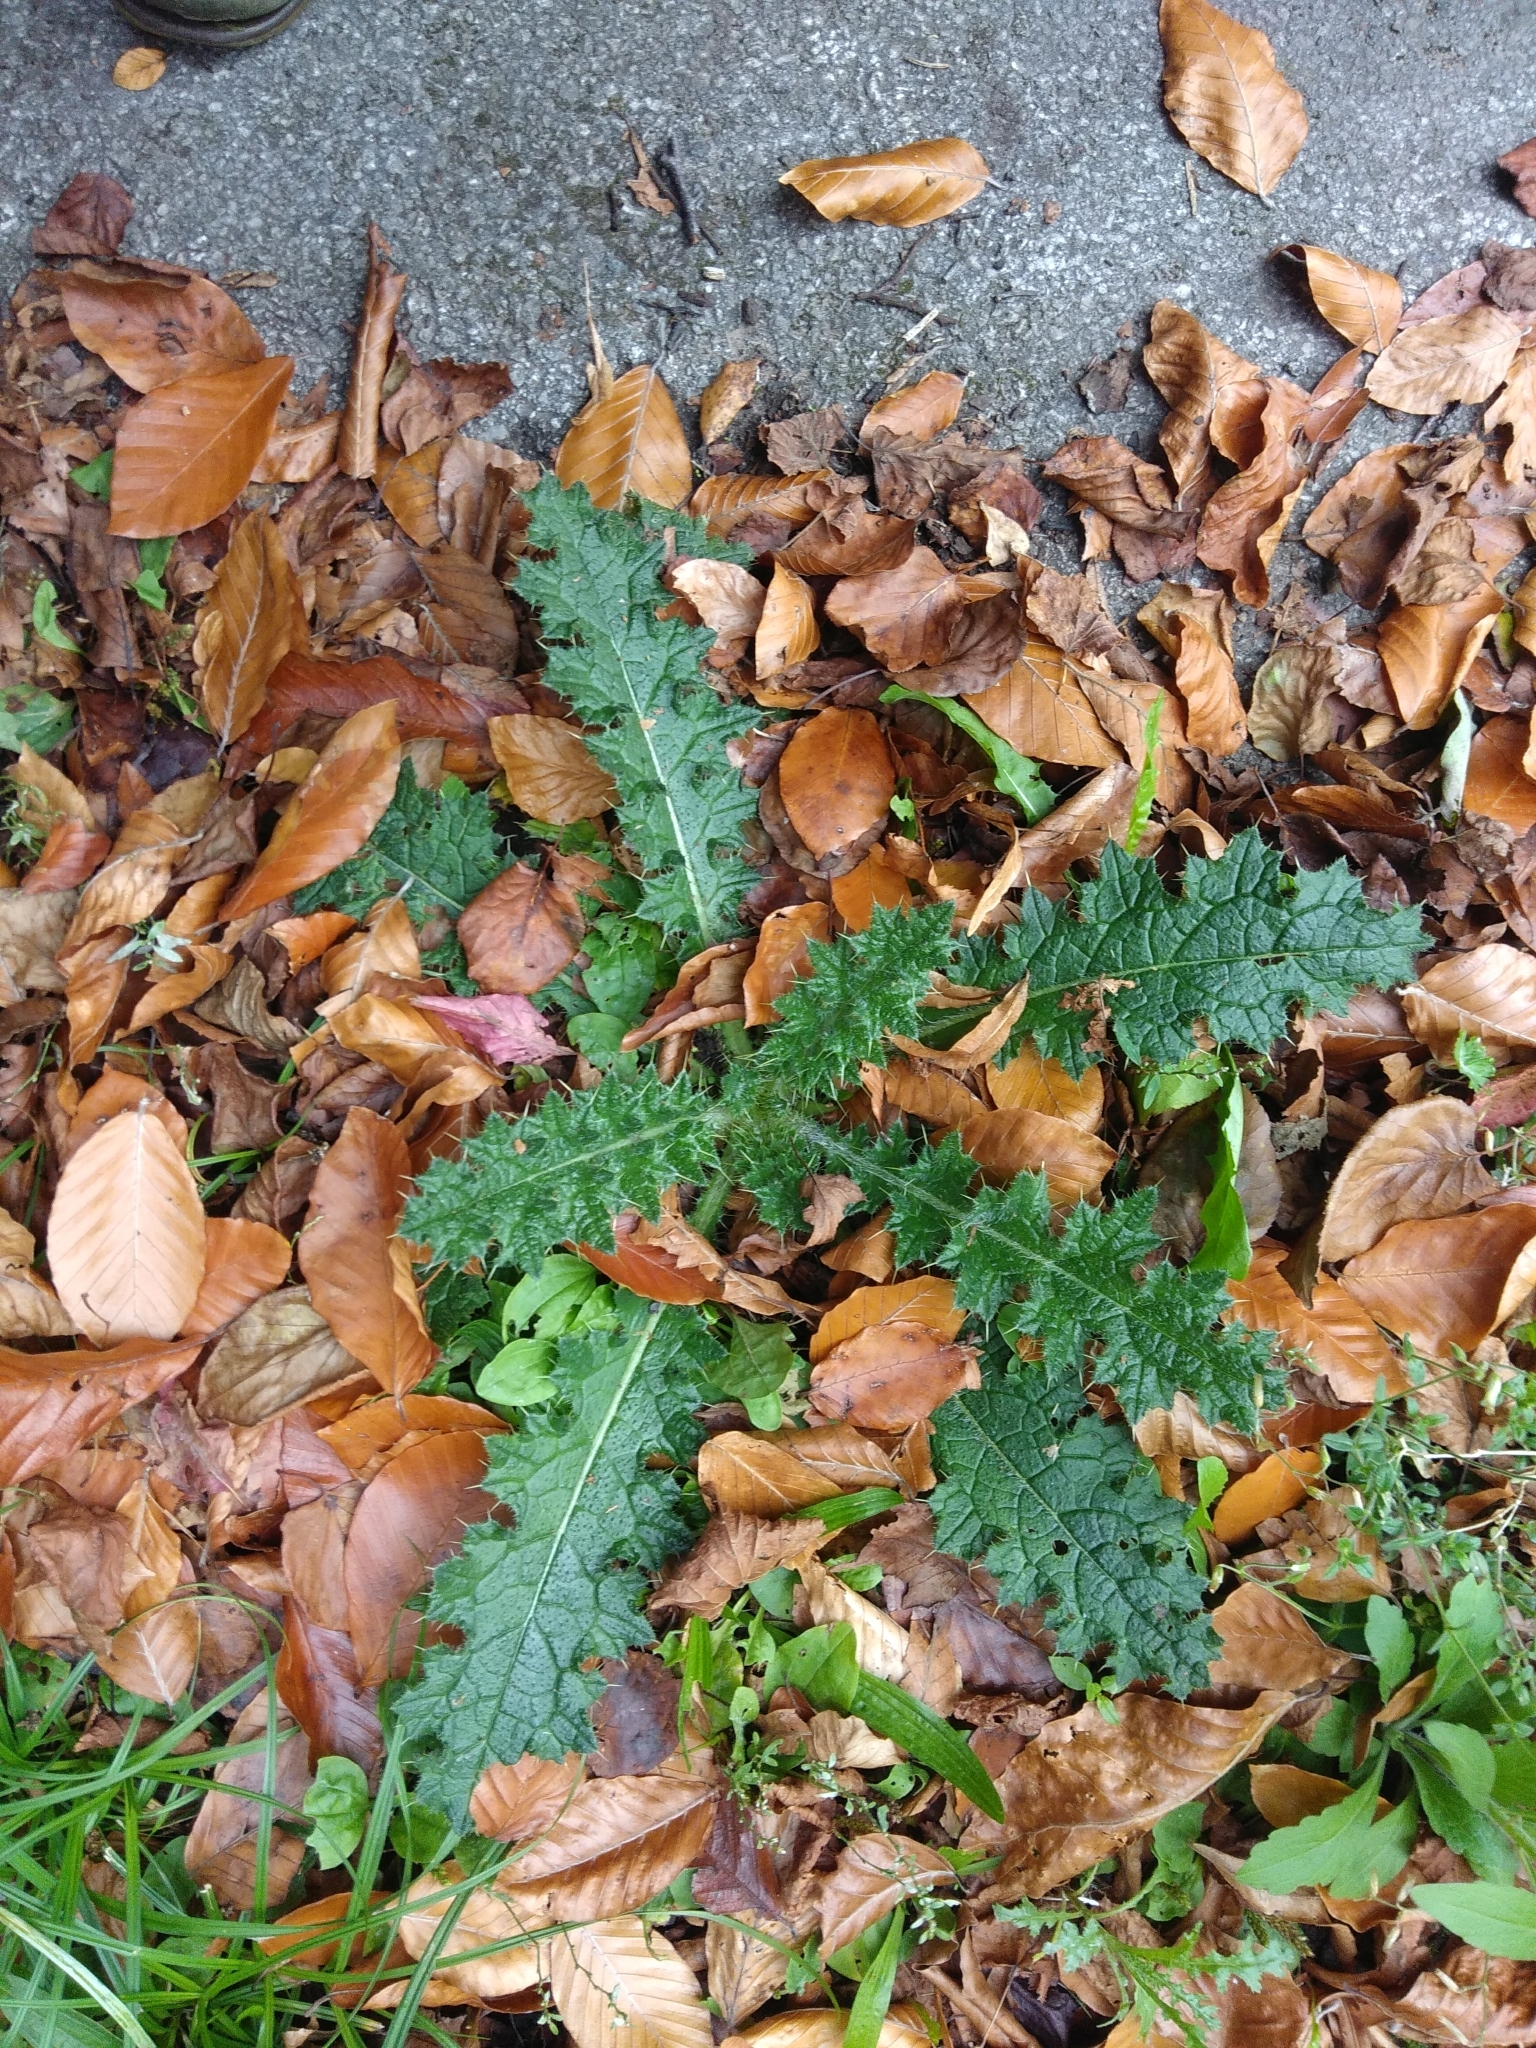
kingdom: Plantae
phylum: Tracheophyta
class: Magnoliopsida
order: Asterales
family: Asteraceae
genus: Cirsium
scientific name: Cirsium vulgare
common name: Bull thistle
